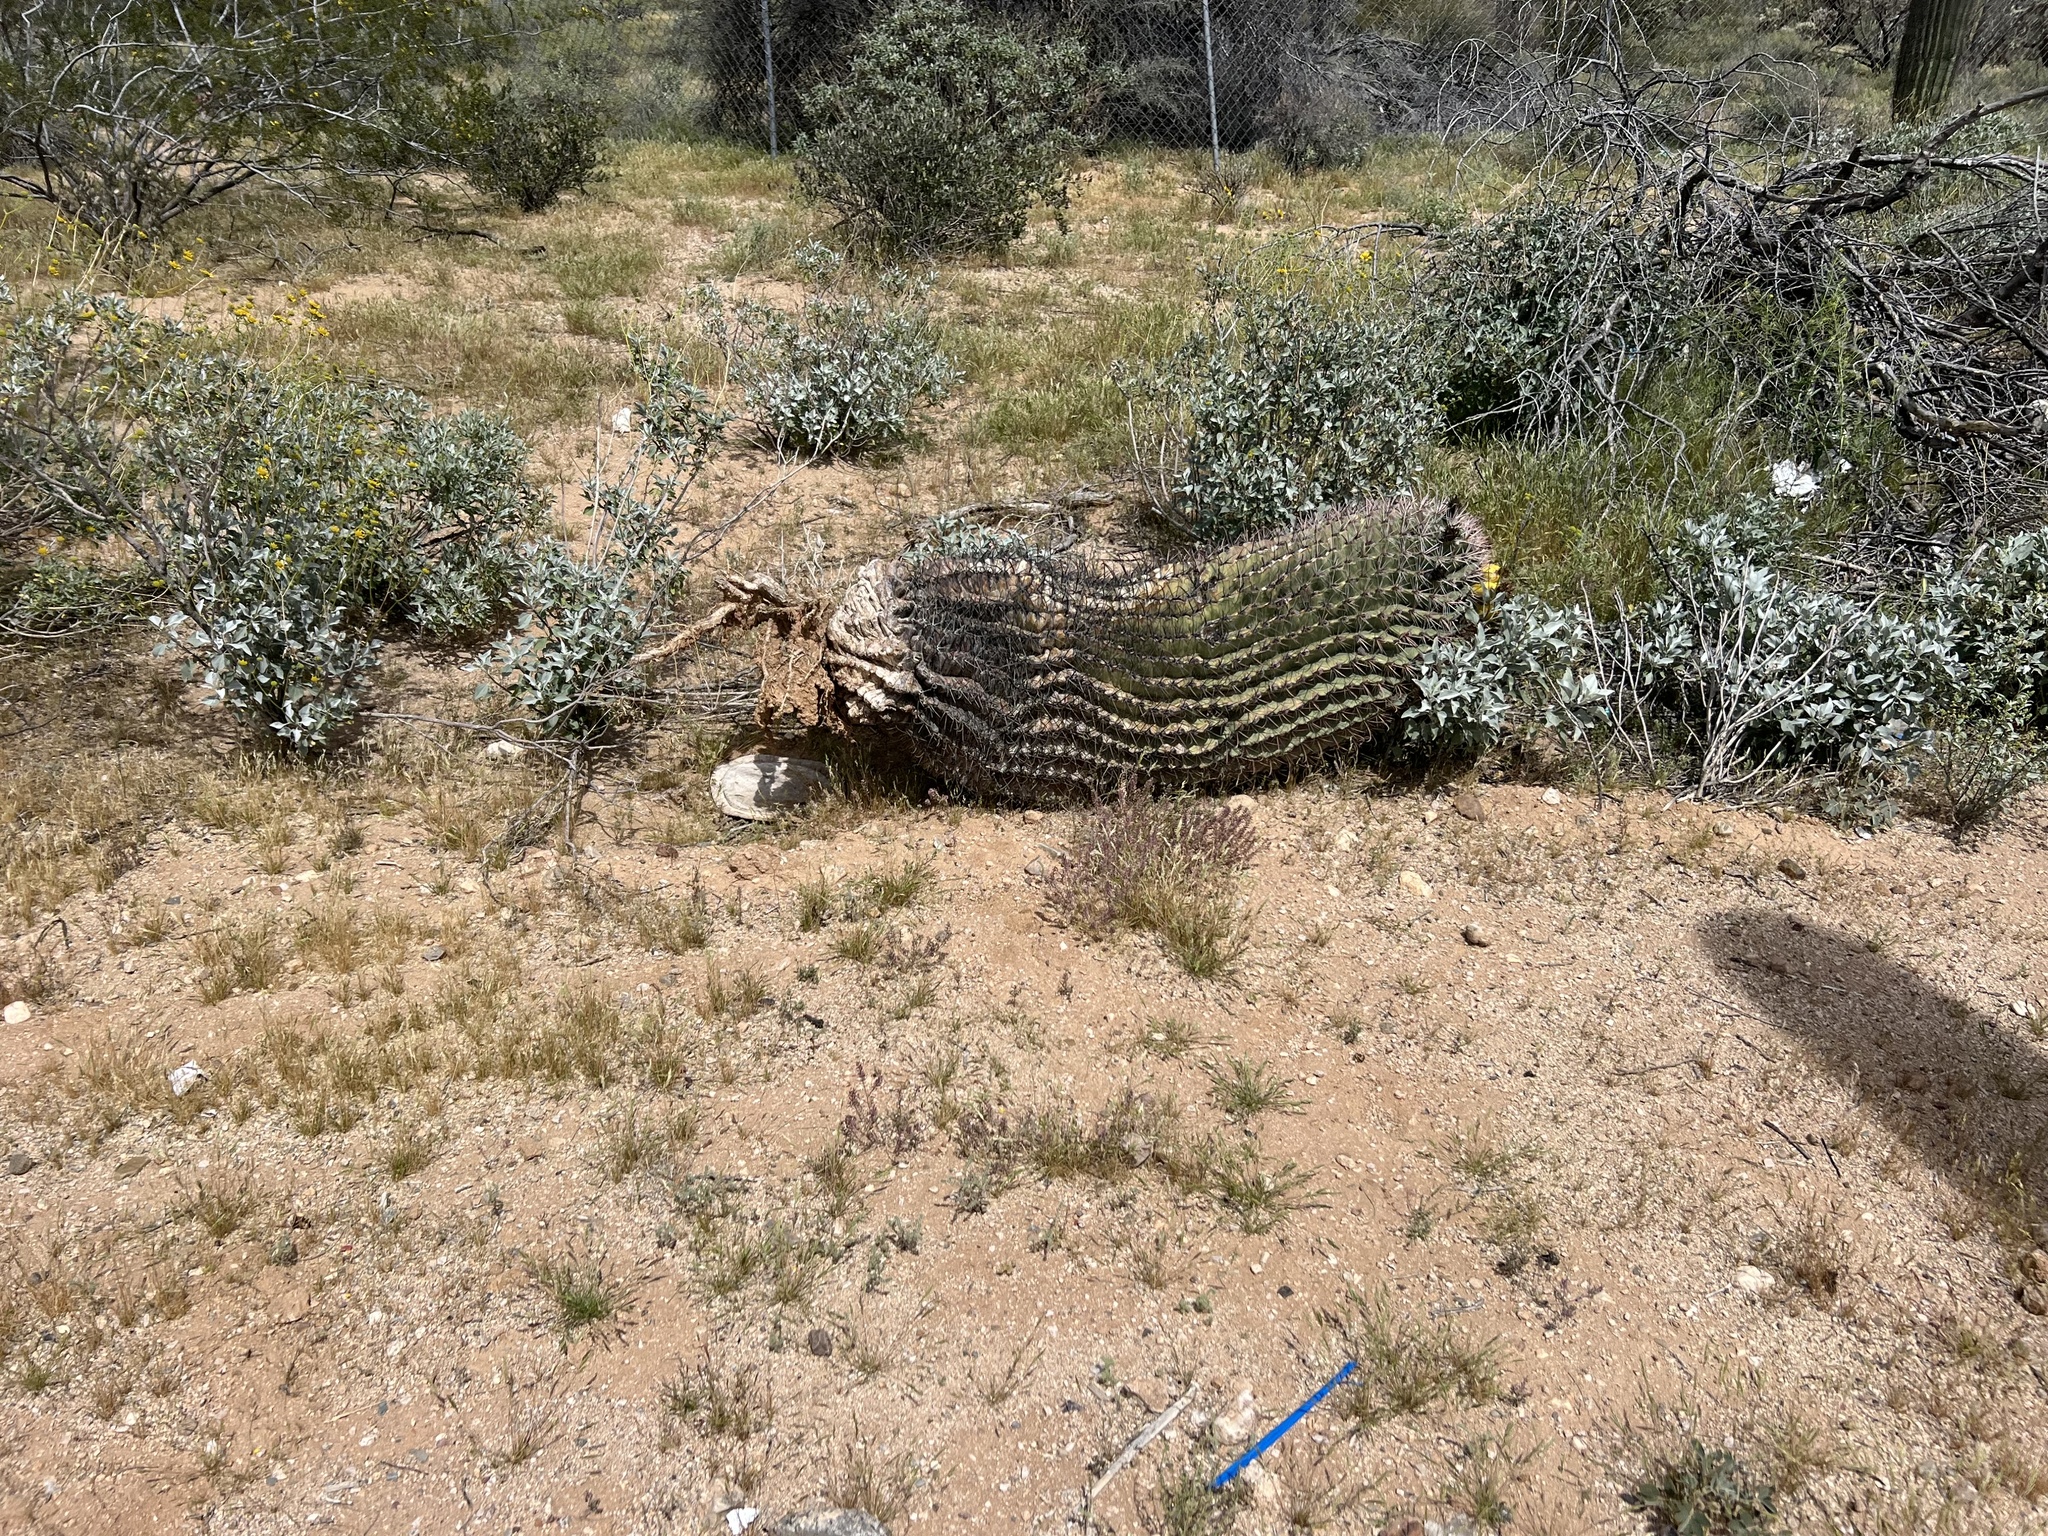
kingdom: Plantae
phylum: Tracheophyta
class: Magnoliopsida
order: Caryophyllales
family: Cactaceae
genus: Ferocactus
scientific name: Ferocactus wislizeni
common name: Candy barrel cactus
